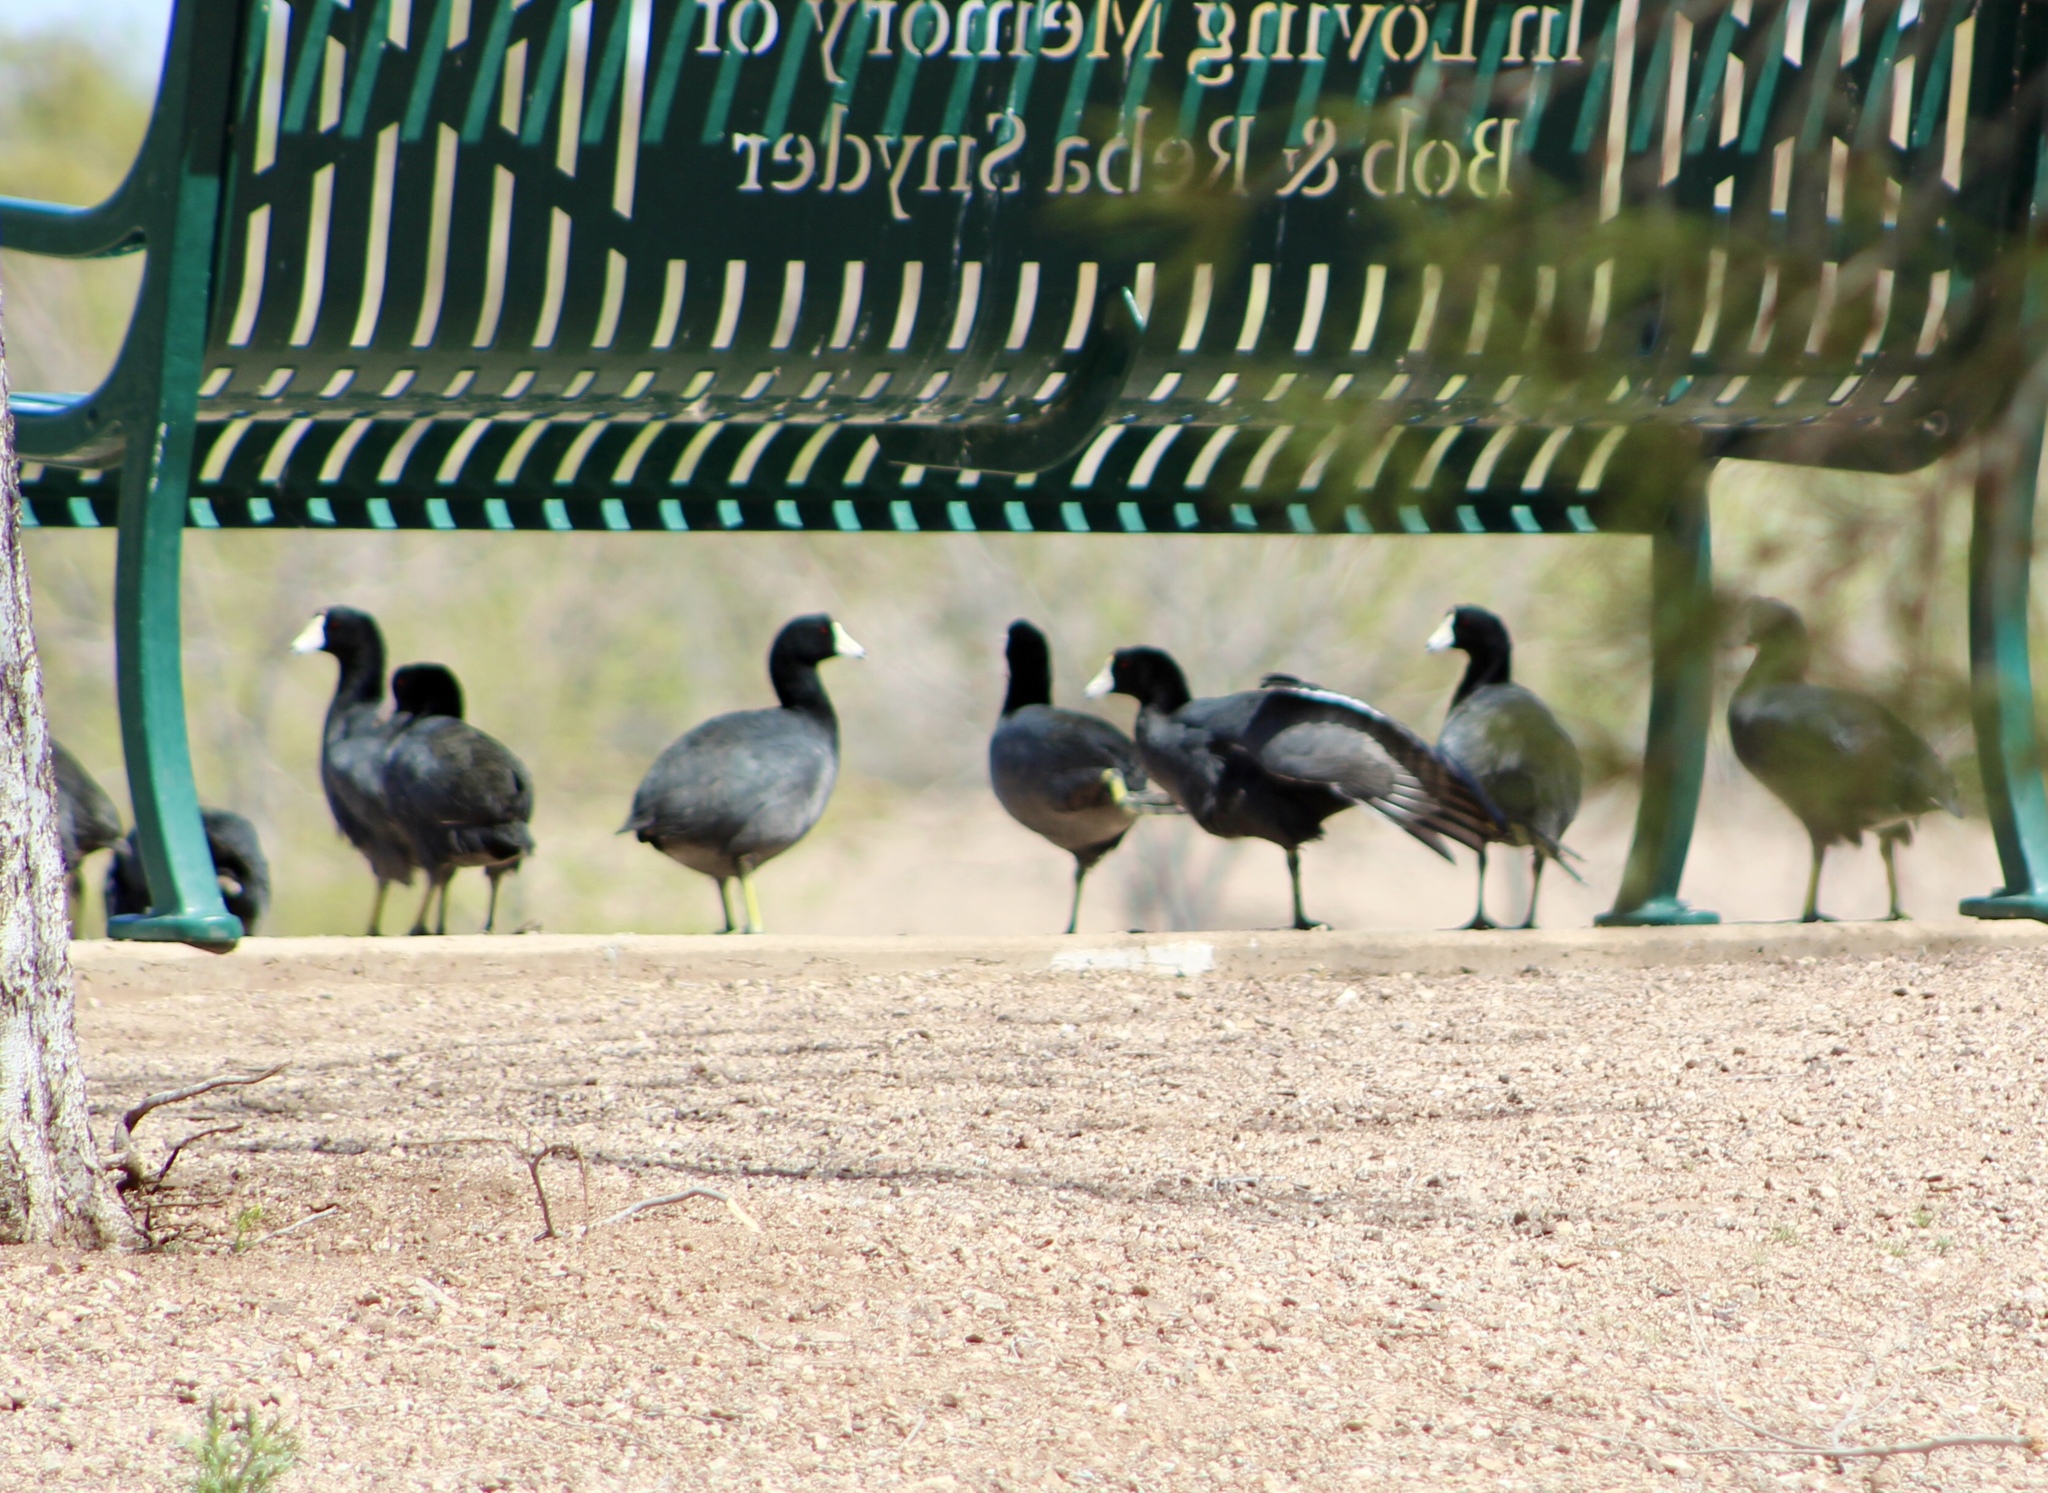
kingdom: Animalia
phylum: Chordata
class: Aves
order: Gruiformes
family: Rallidae
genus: Fulica
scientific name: Fulica americana
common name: American coot
